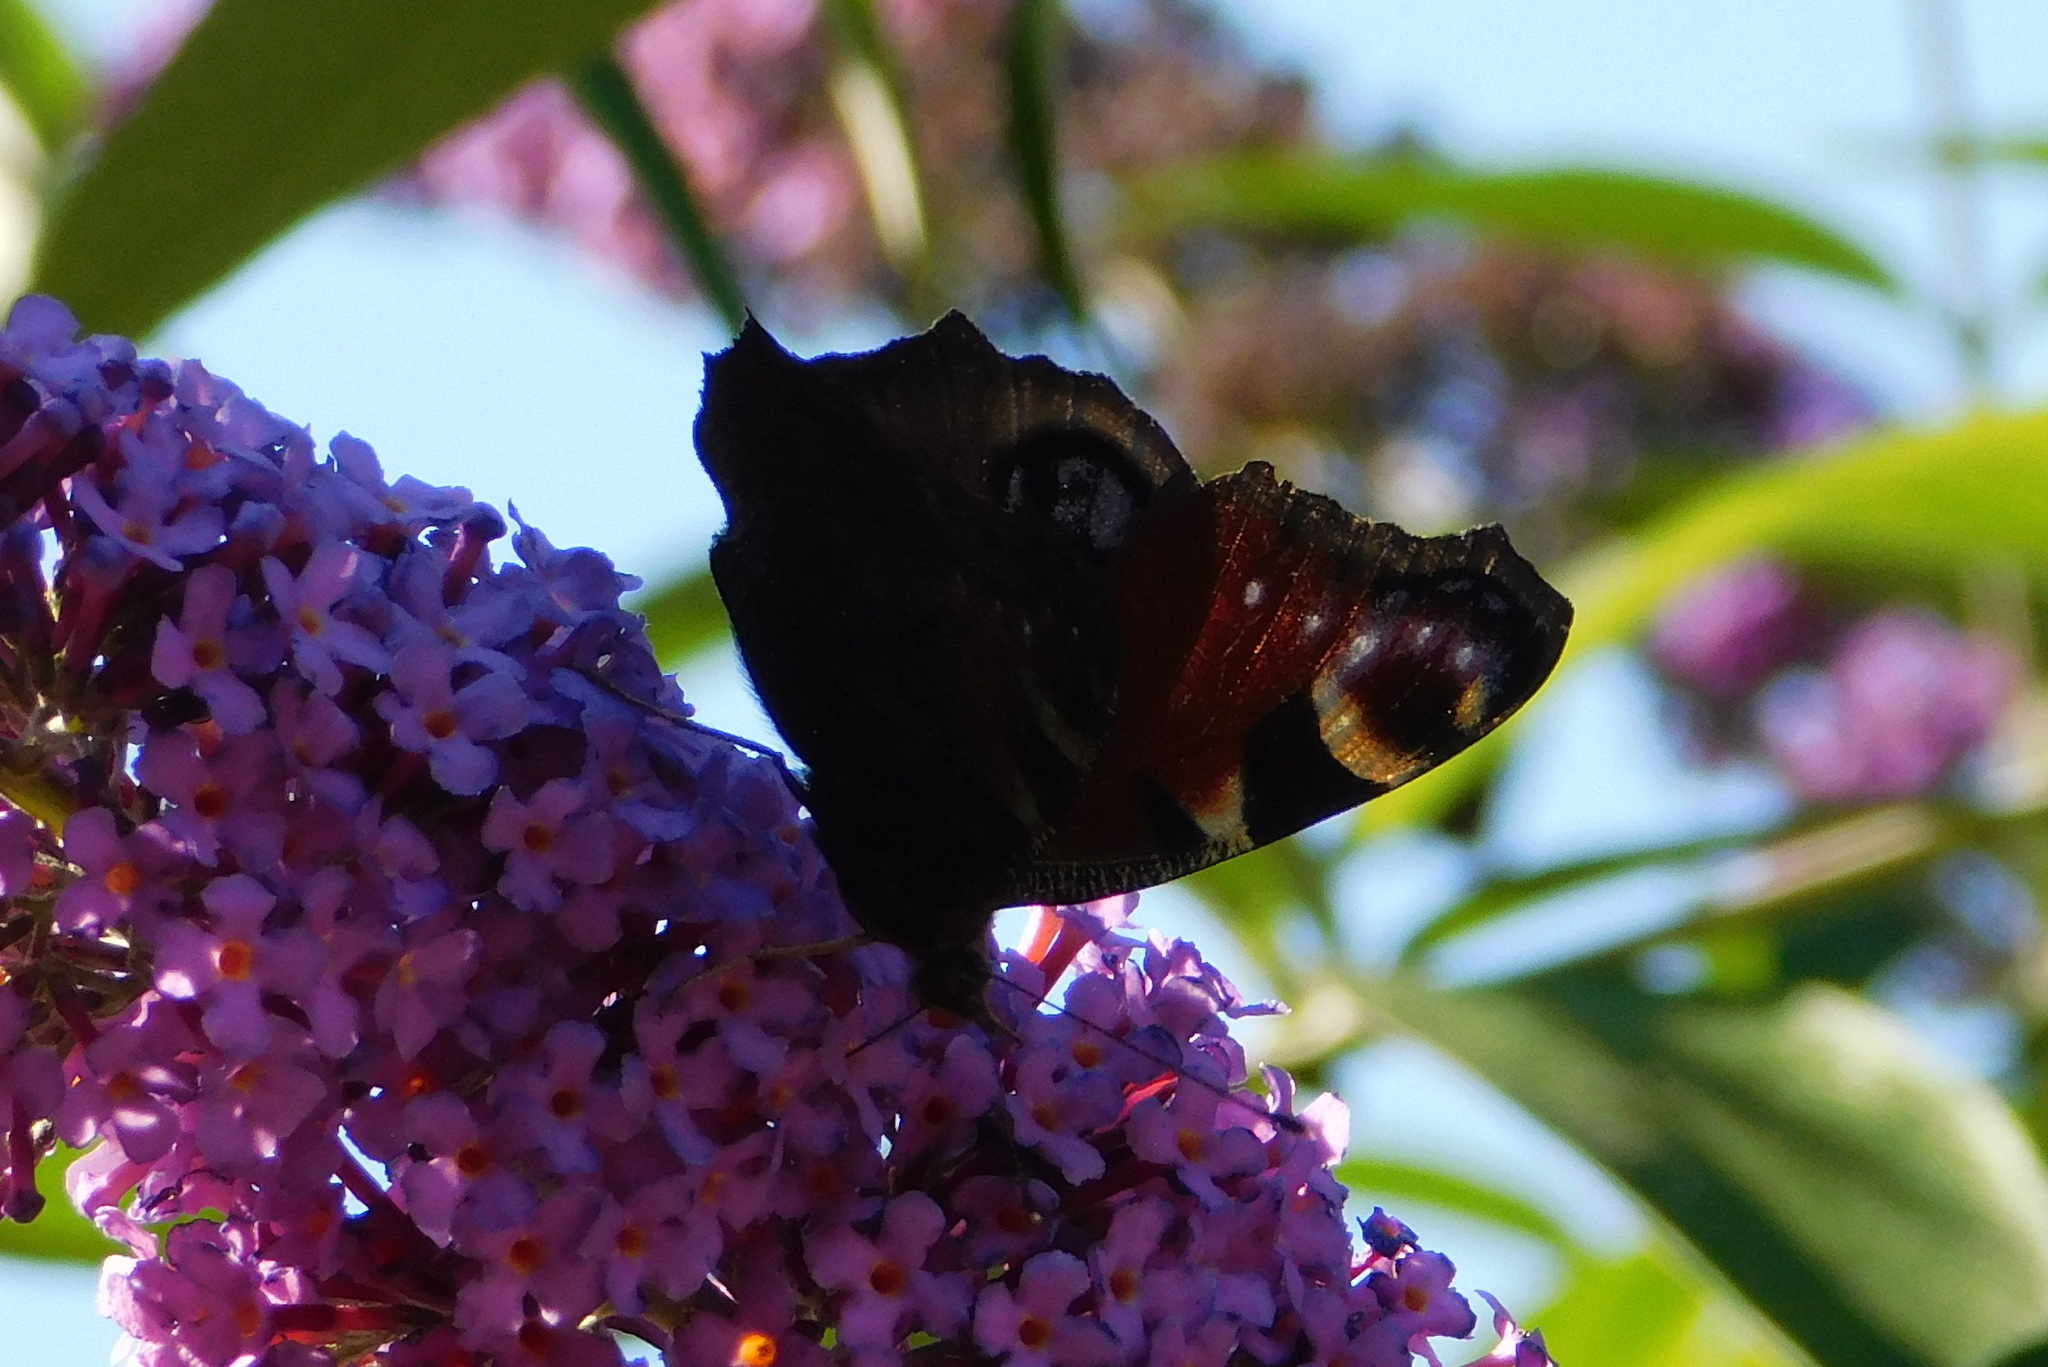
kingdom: Animalia
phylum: Arthropoda
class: Insecta
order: Lepidoptera
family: Nymphalidae
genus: Aglais
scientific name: Aglais io
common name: Peacock
